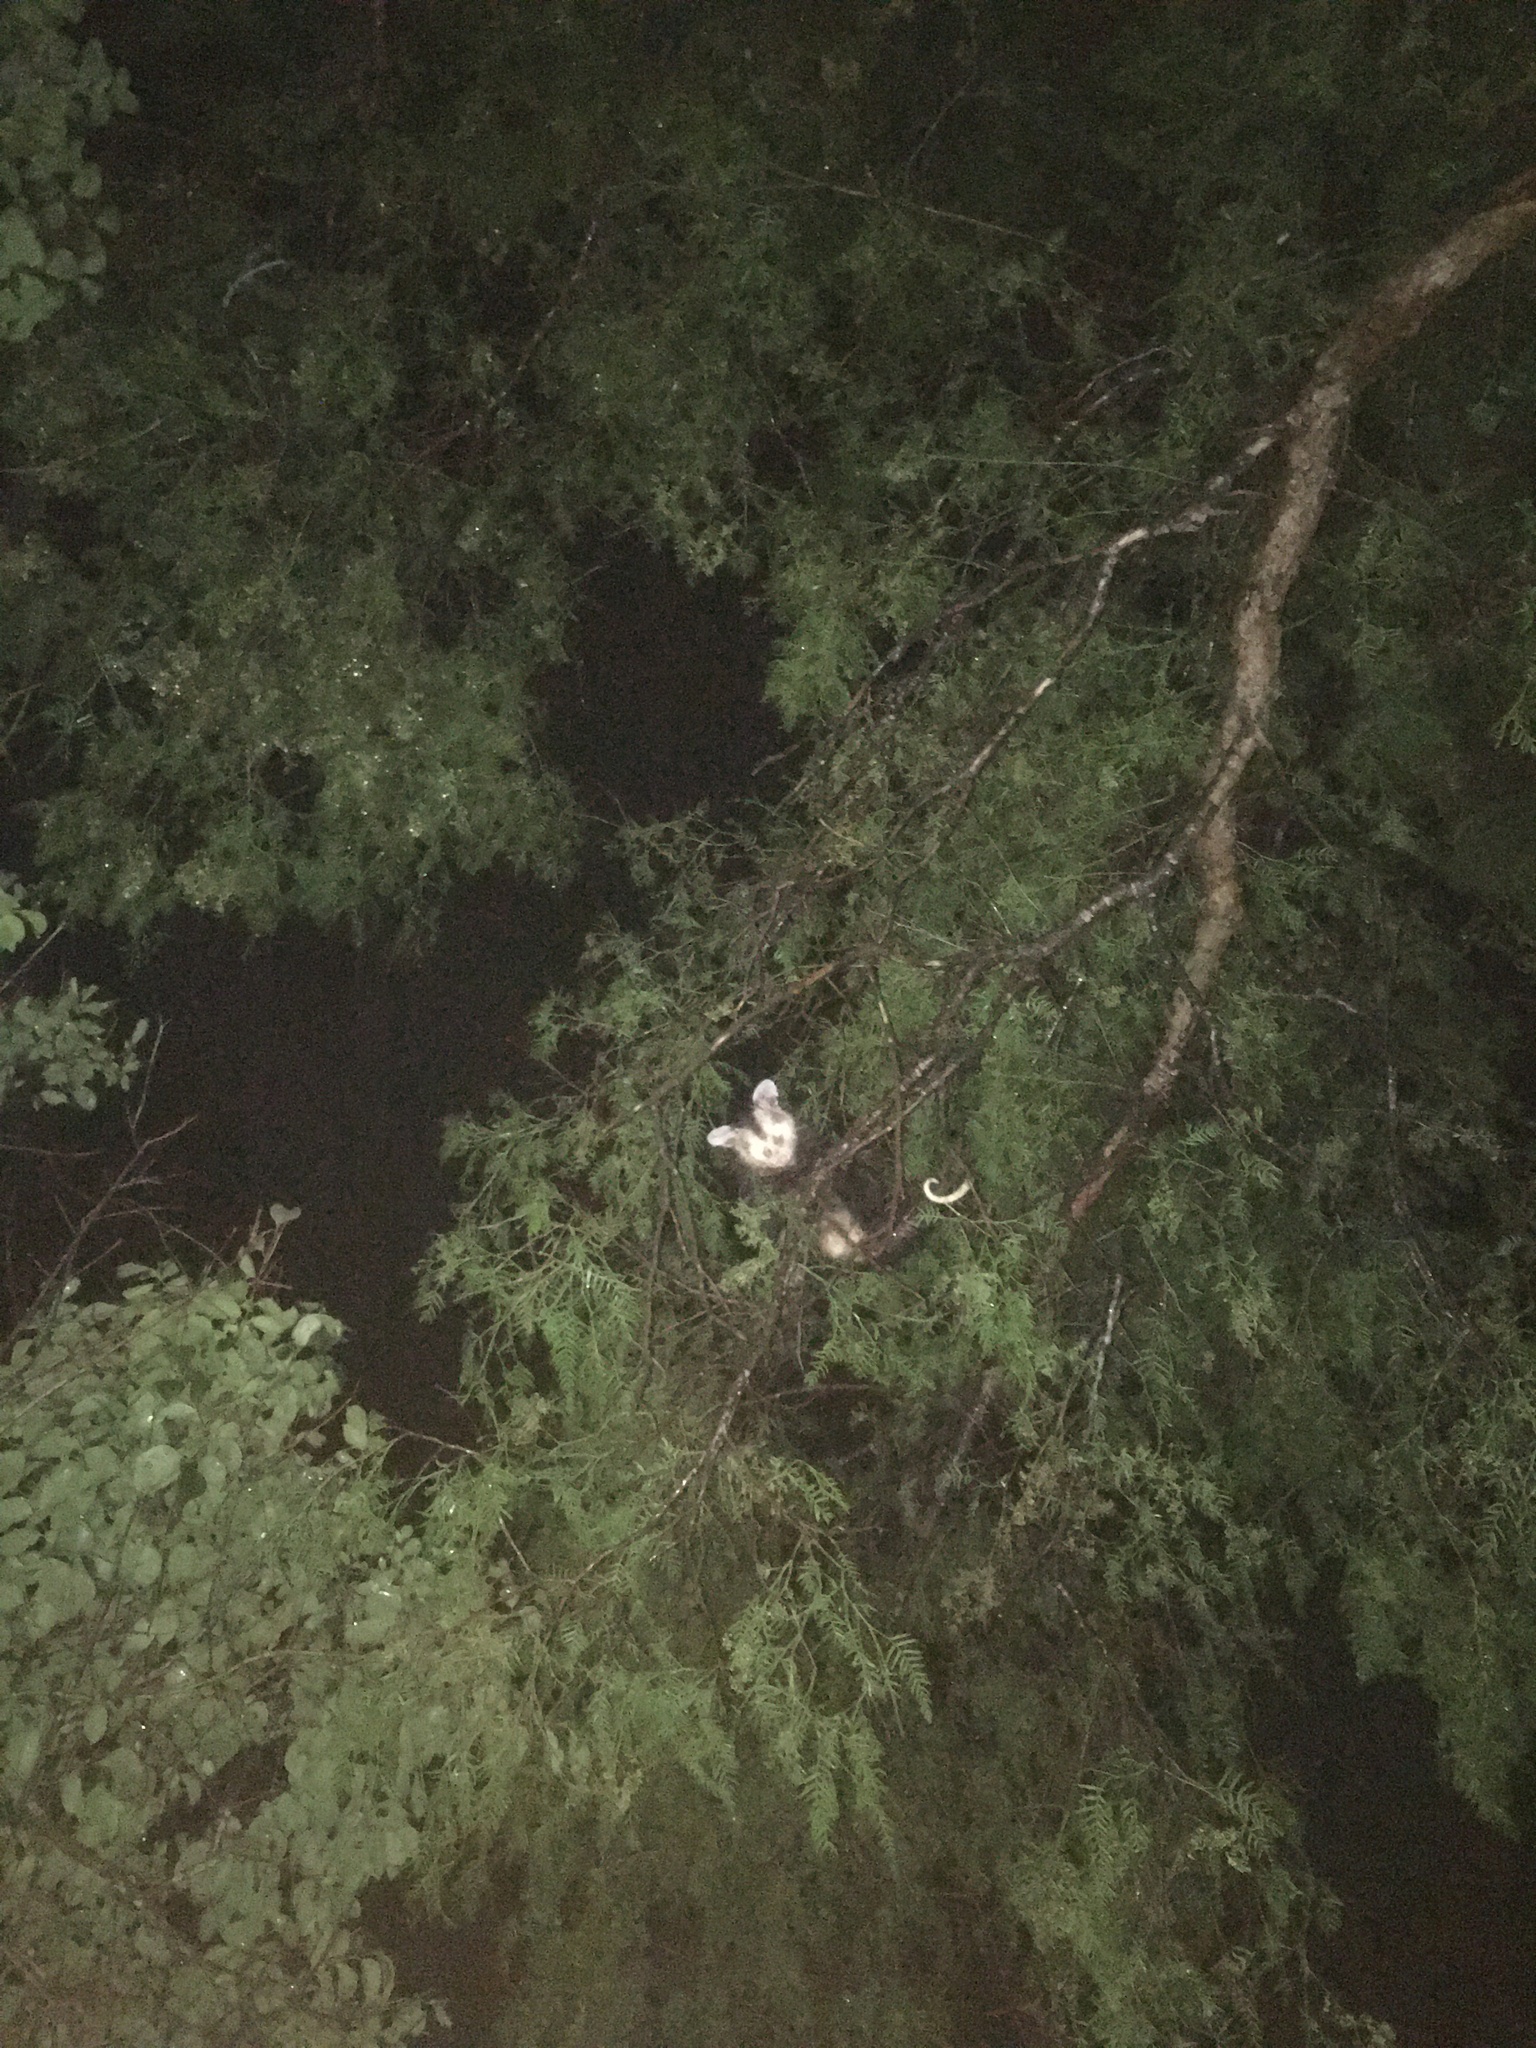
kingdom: Animalia
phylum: Chordata
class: Mammalia
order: Didelphimorphia
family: Didelphidae
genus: Didelphis
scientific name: Didelphis albiventris
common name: White-eared opossum
